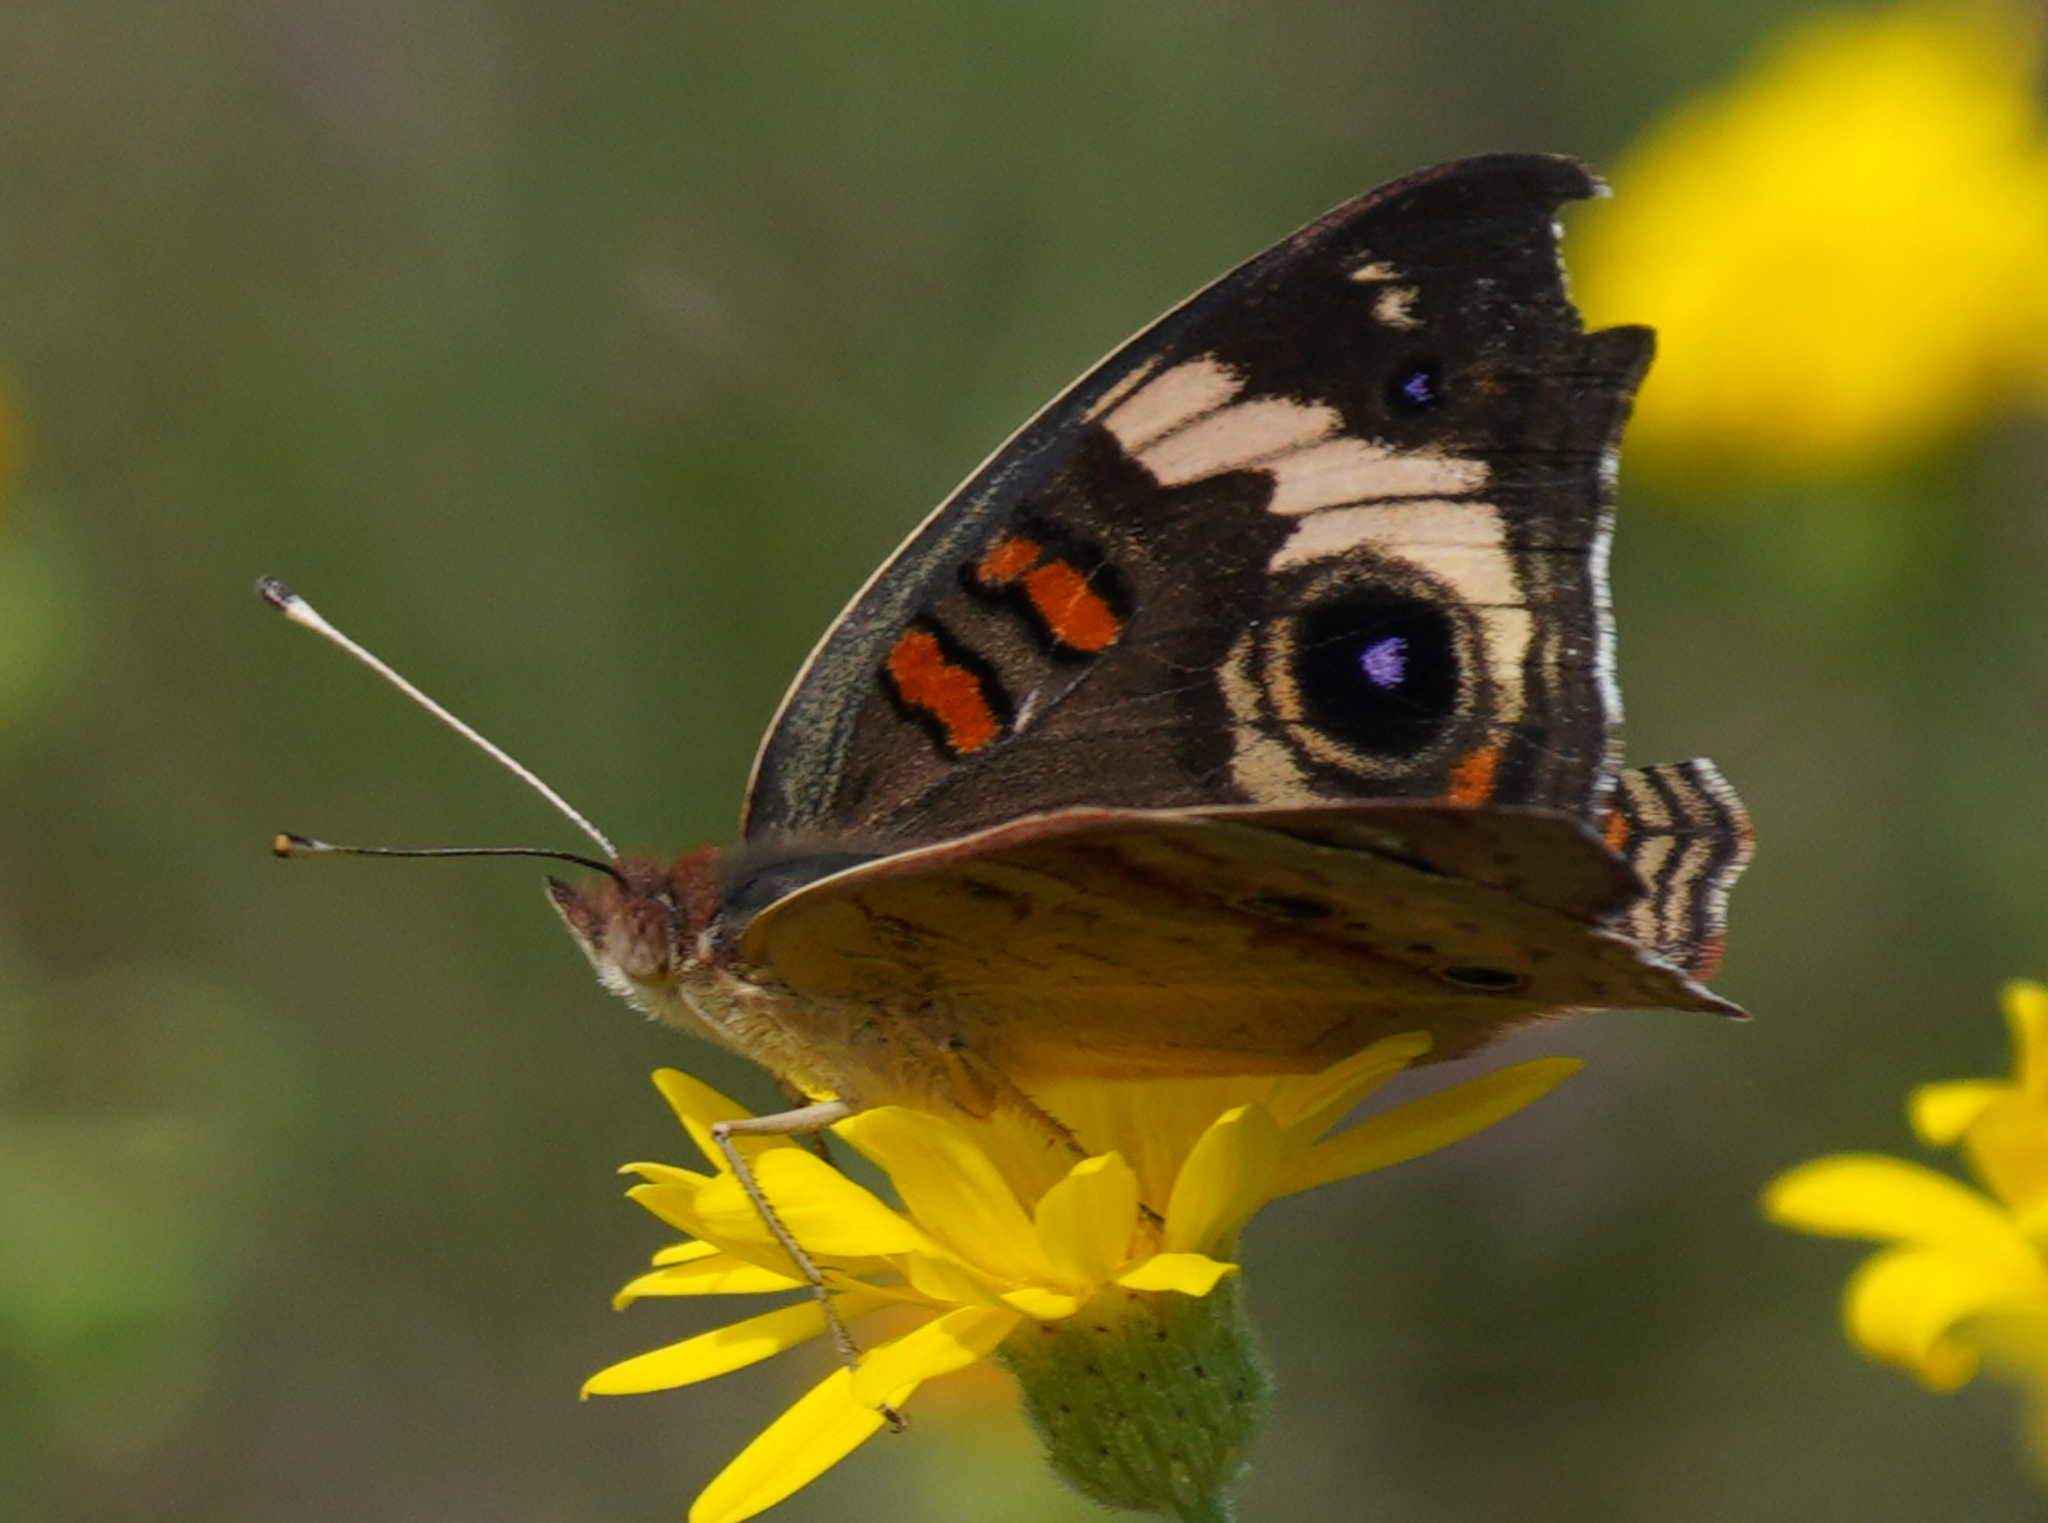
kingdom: Animalia
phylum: Arthropoda
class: Insecta
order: Lepidoptera
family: Nymphalidae
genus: Junonia
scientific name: Junonia coenia
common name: Common buckeye
